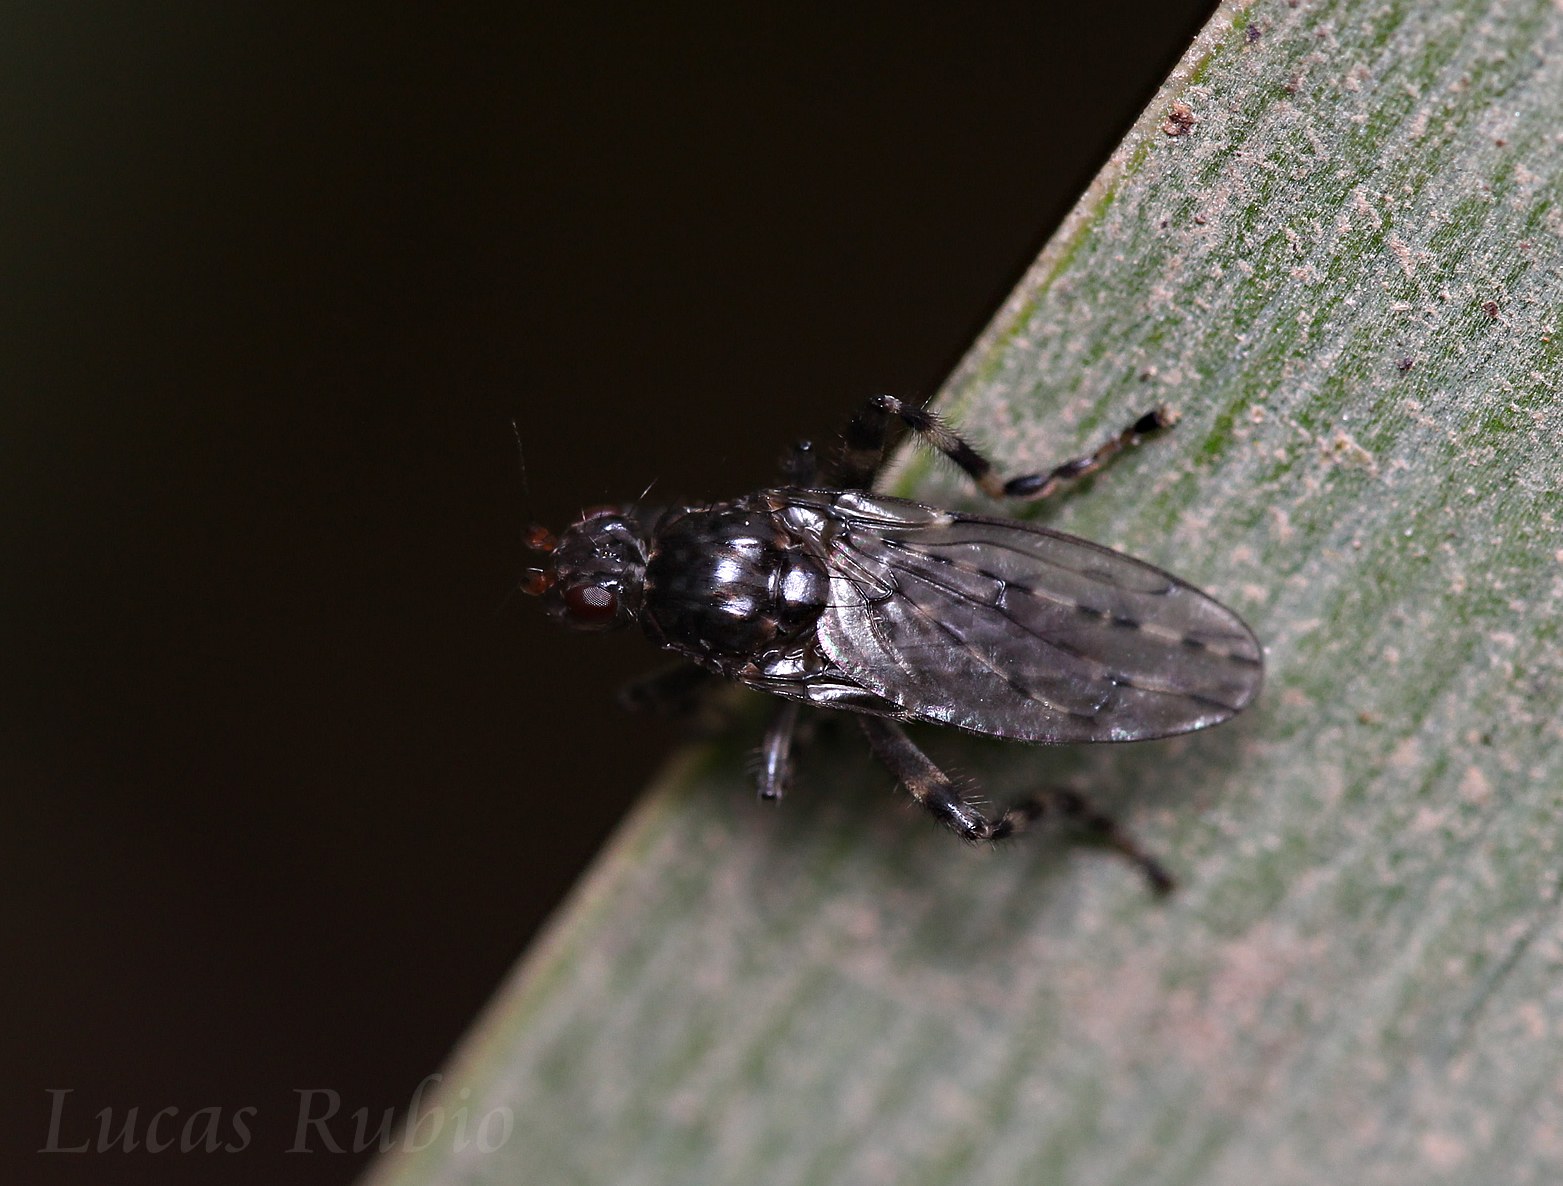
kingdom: Animalia
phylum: Arthropoda
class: Insecta
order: Diptera
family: Sphaeroceridae
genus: Maculantrops
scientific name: Maculantrops hirtipes
